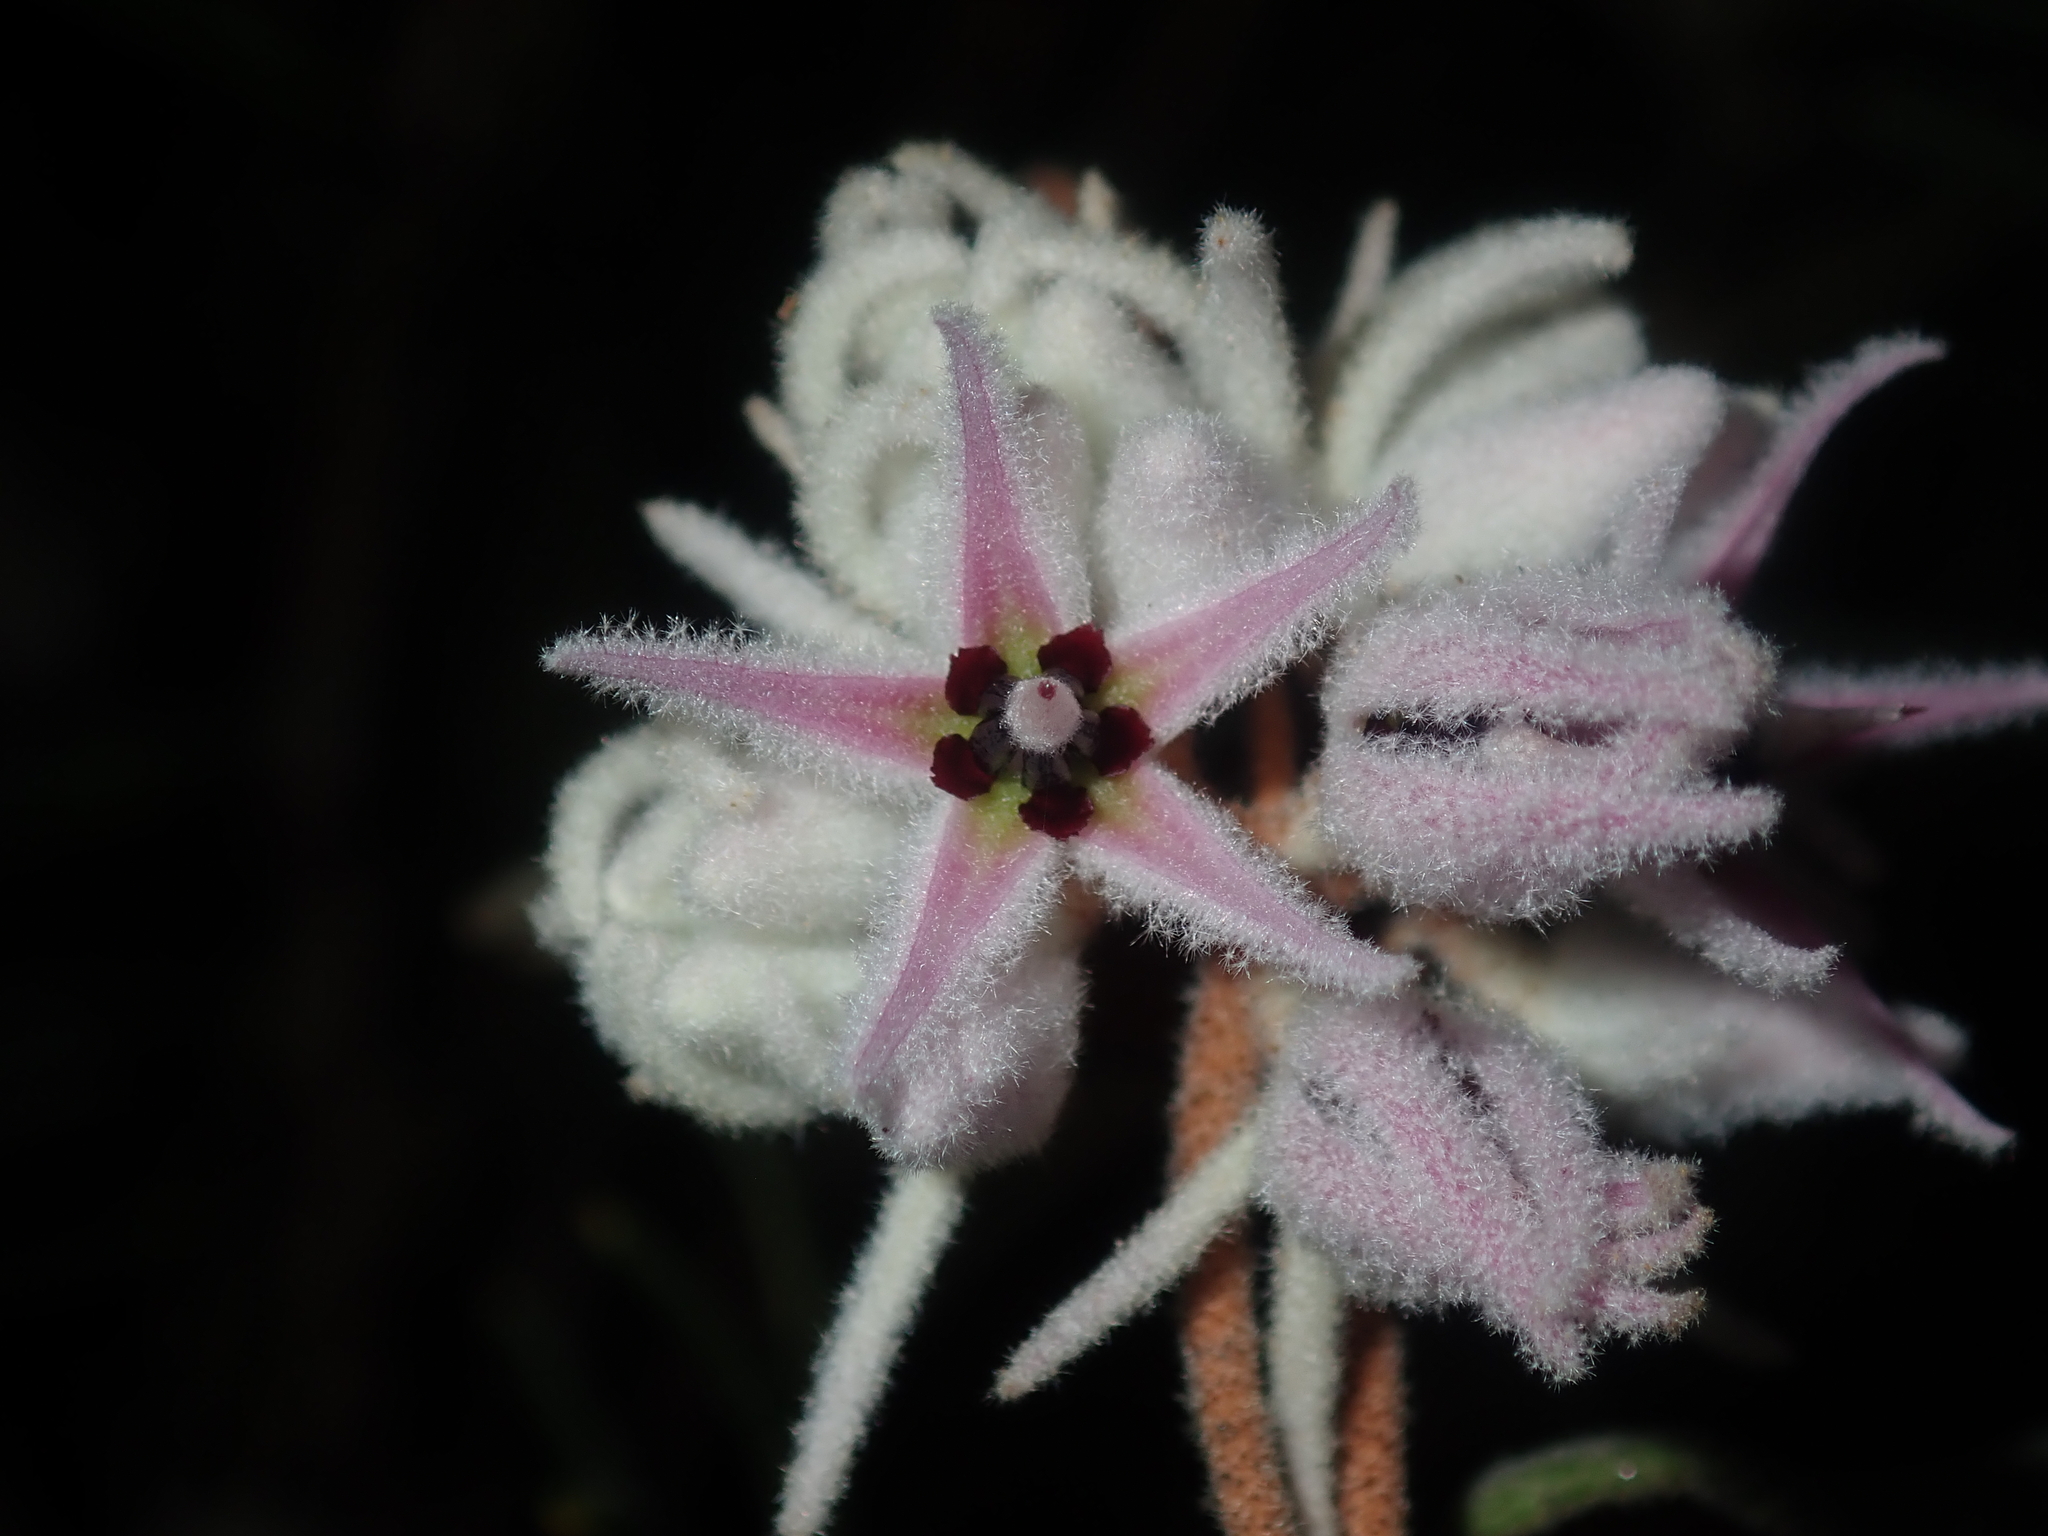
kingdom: Plantae
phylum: Tracheophyta
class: Magnoliopsida
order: Malvales
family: Malvaceae
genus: Lasiopetalum
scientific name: Lasiopetalum drummondii
